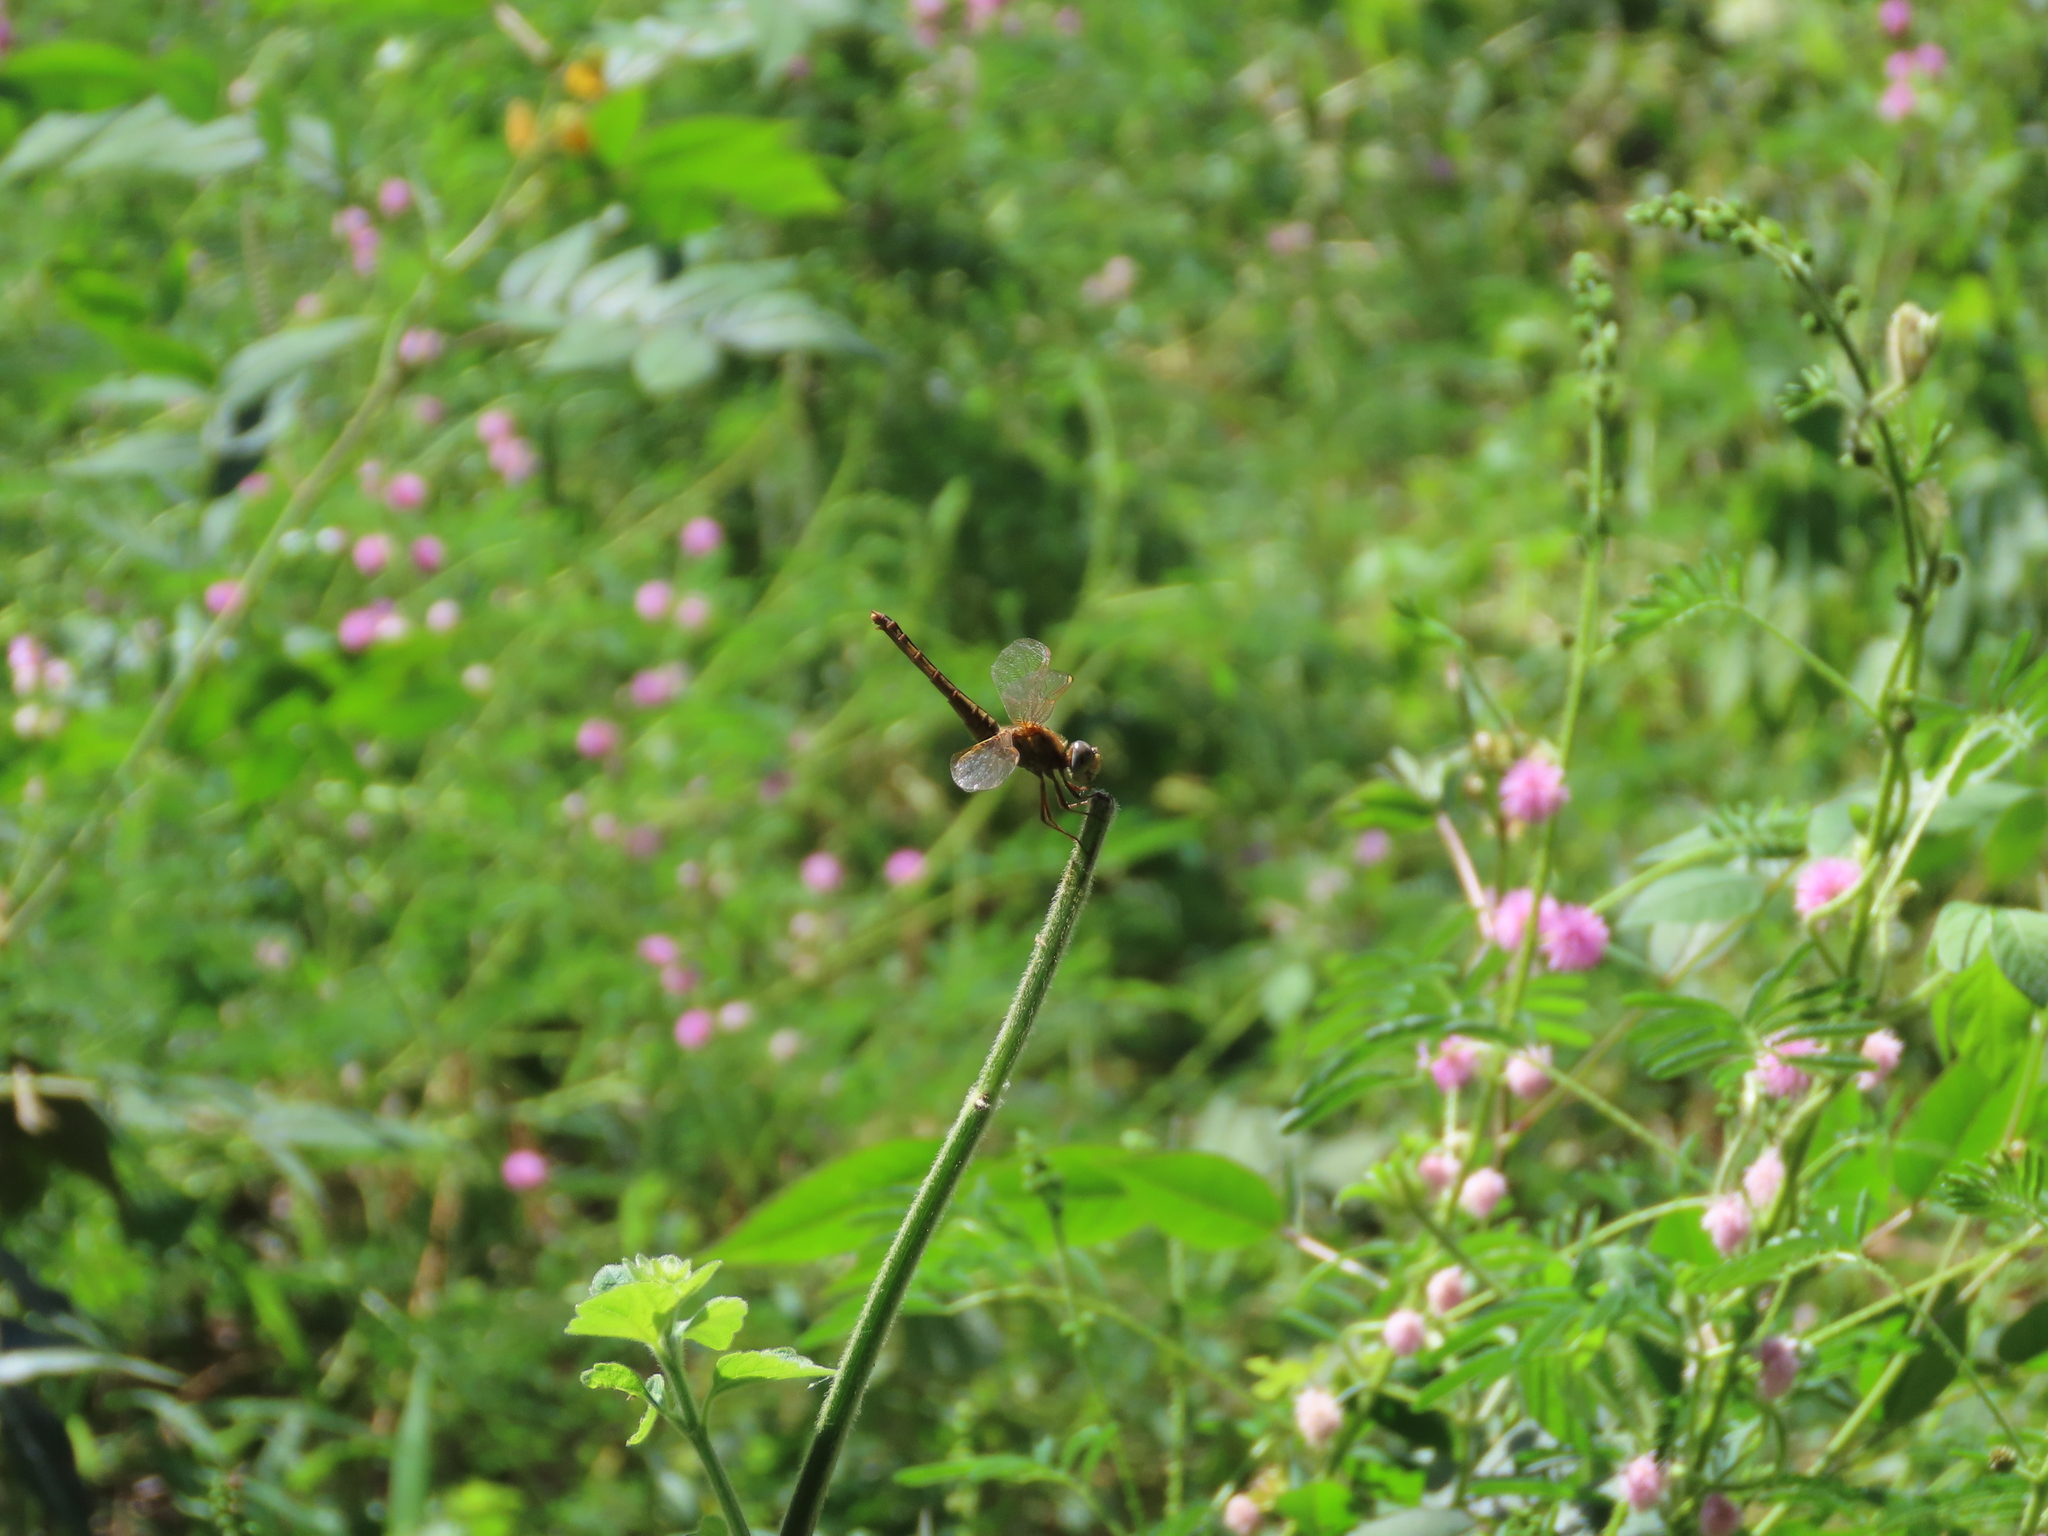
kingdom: Animalia
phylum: Arthropoda
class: Insecta
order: Odonata
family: Libellulidae
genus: Crocothemis
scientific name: Crocothemis servilia
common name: Scarlet skimmer
